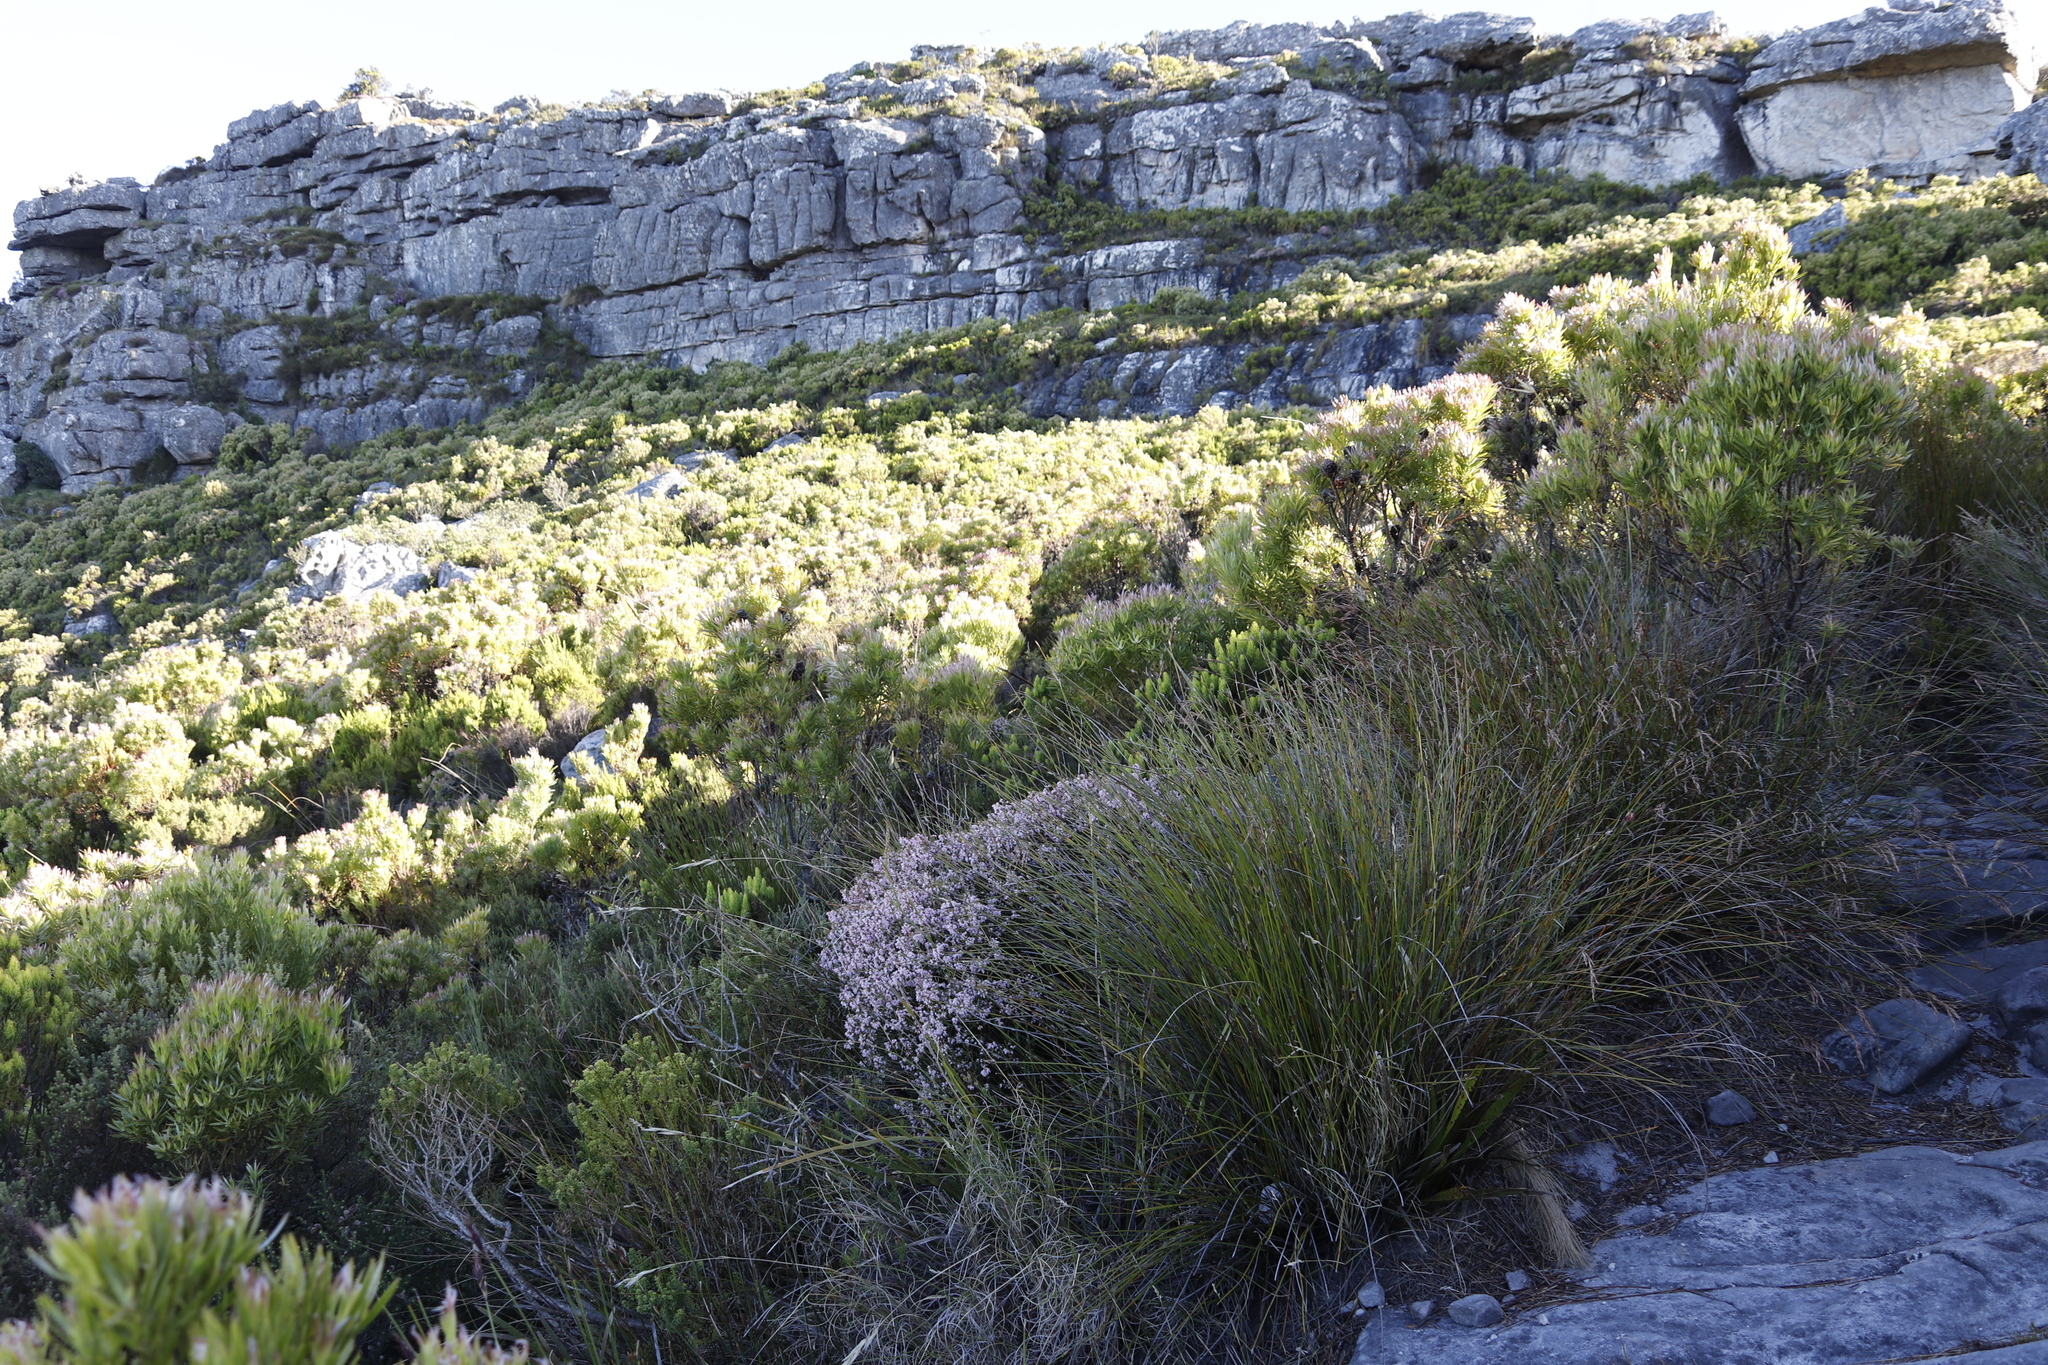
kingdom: Plantae
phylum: Tracheophyta
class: Magnoliopsida
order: Ericales
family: Ericaceae
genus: Erica
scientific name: Erica tenuifolia
